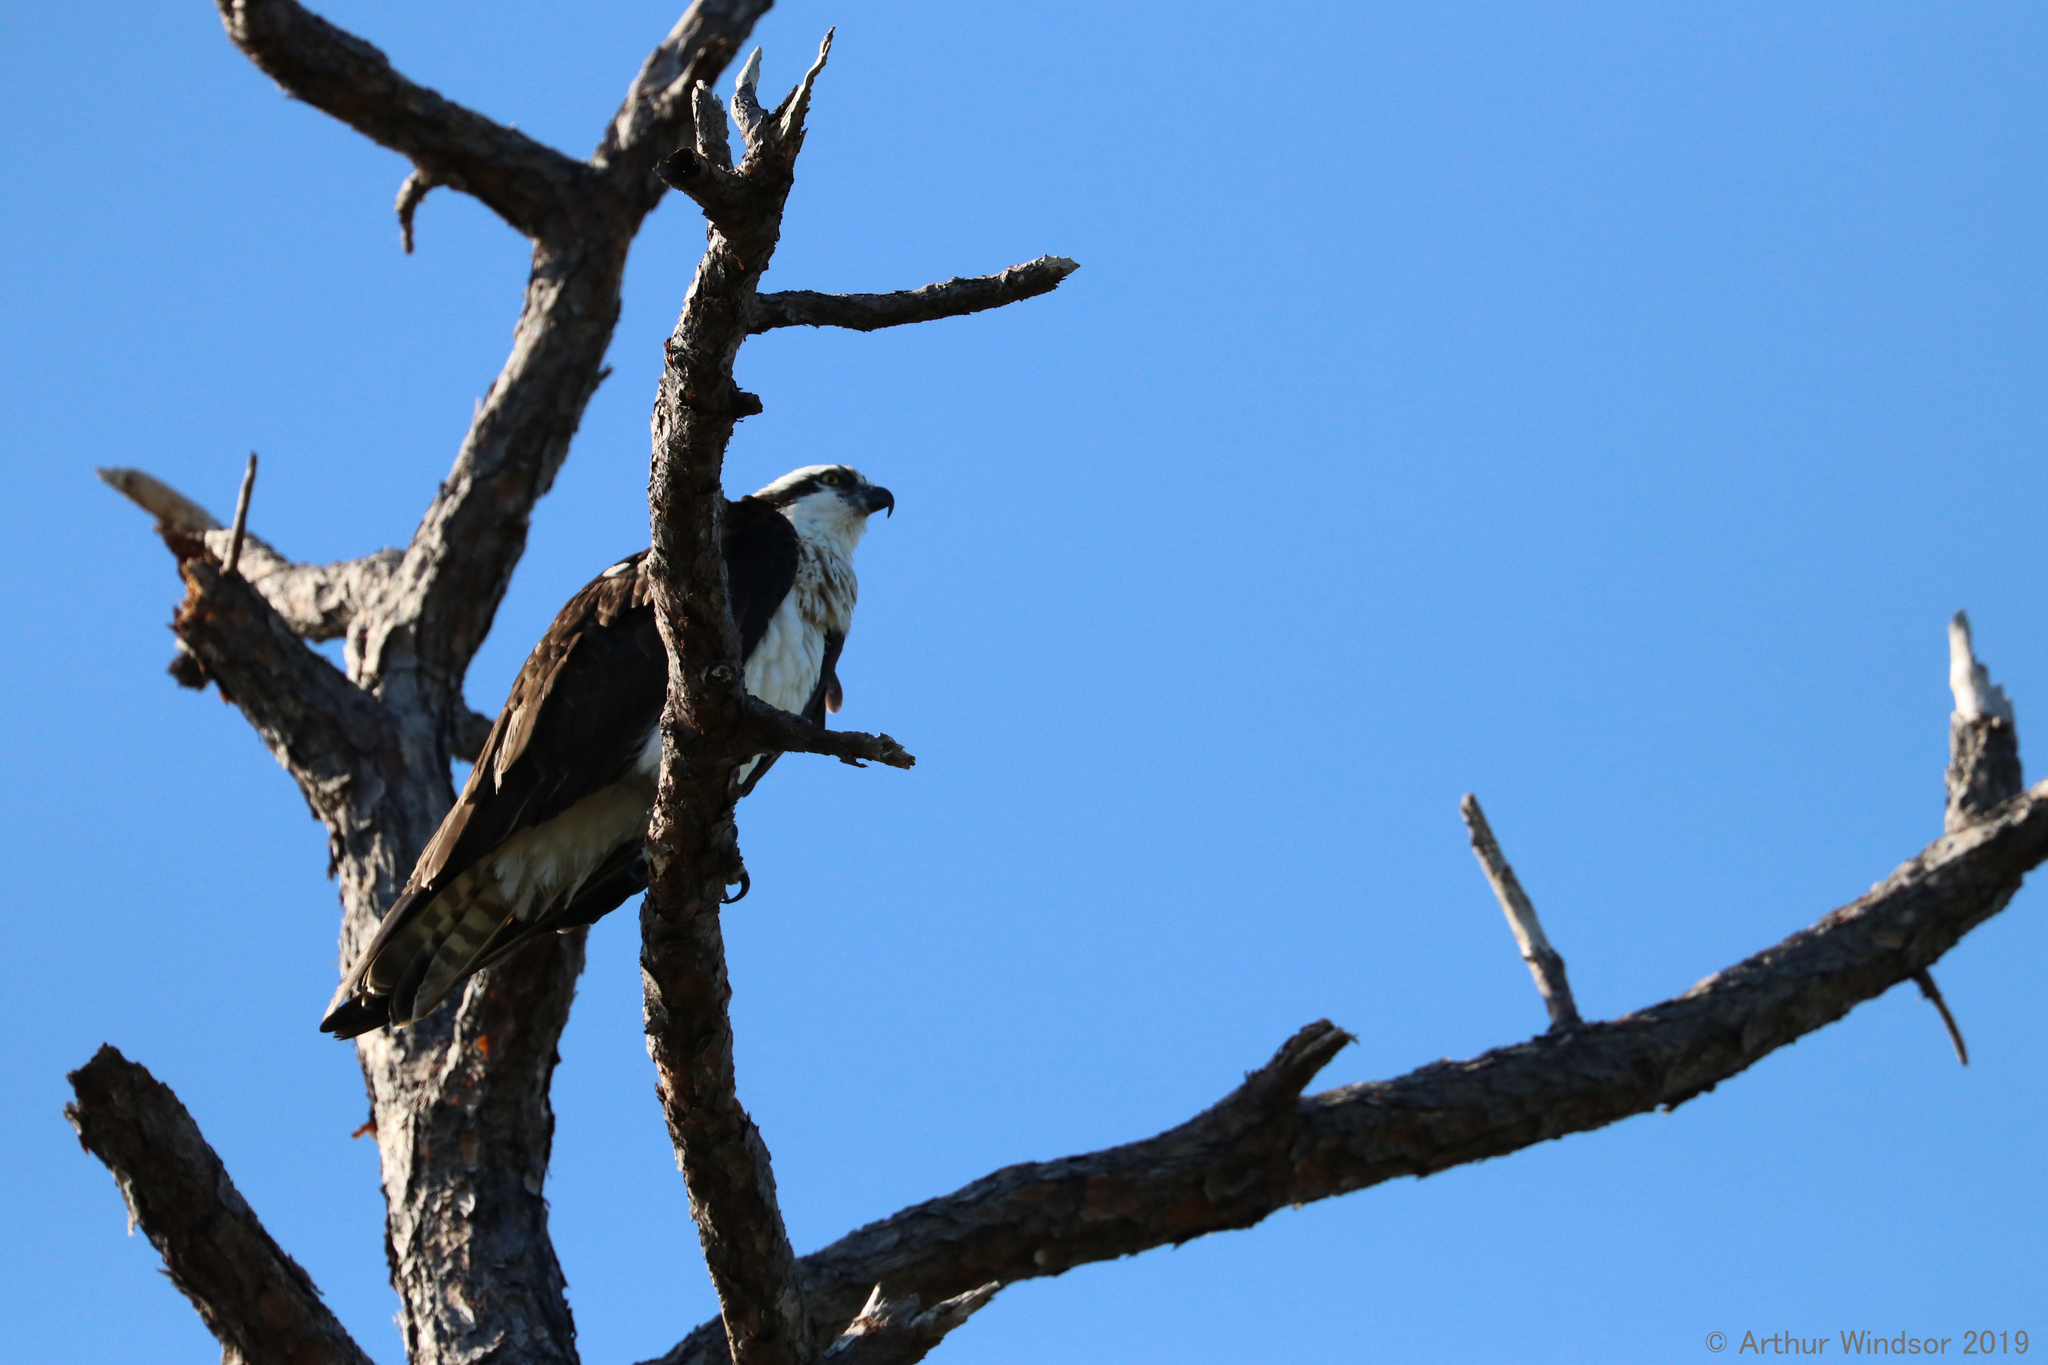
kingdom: Animalia
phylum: Chordata
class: Aves
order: Accipitriformes
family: Pandionidae
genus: Pandion
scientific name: Pandion haliaetus
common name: Osprey
